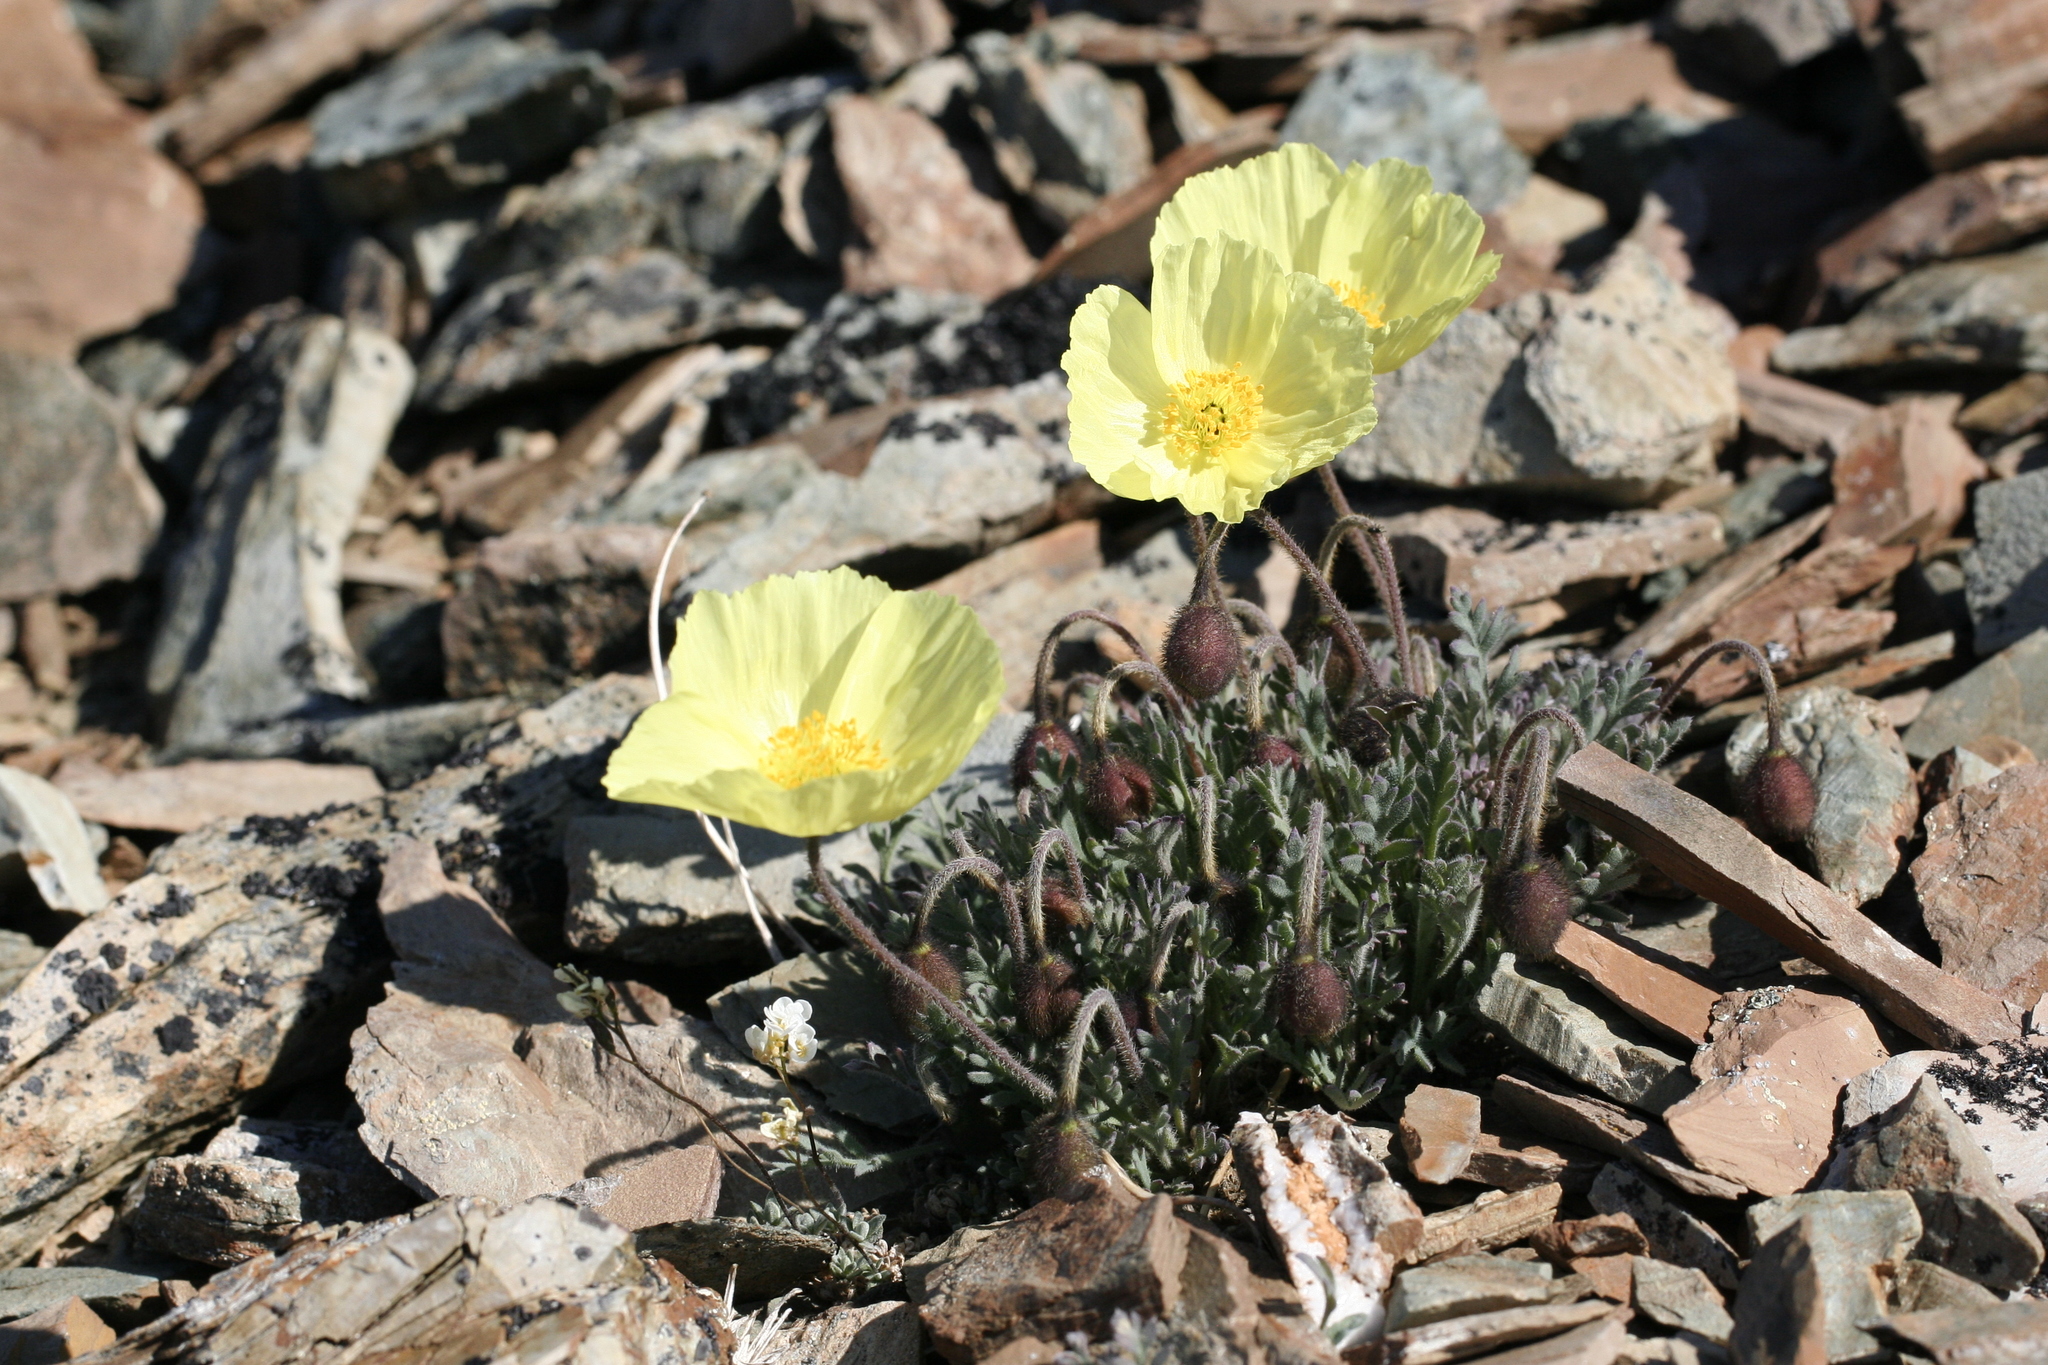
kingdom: Plantae
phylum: Tracheophyta
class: Magnoliopsida
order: Ranunculales
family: Papaveraceae
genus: Papaver
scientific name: Papaver mcconnellii
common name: Mcconnell's poppy
